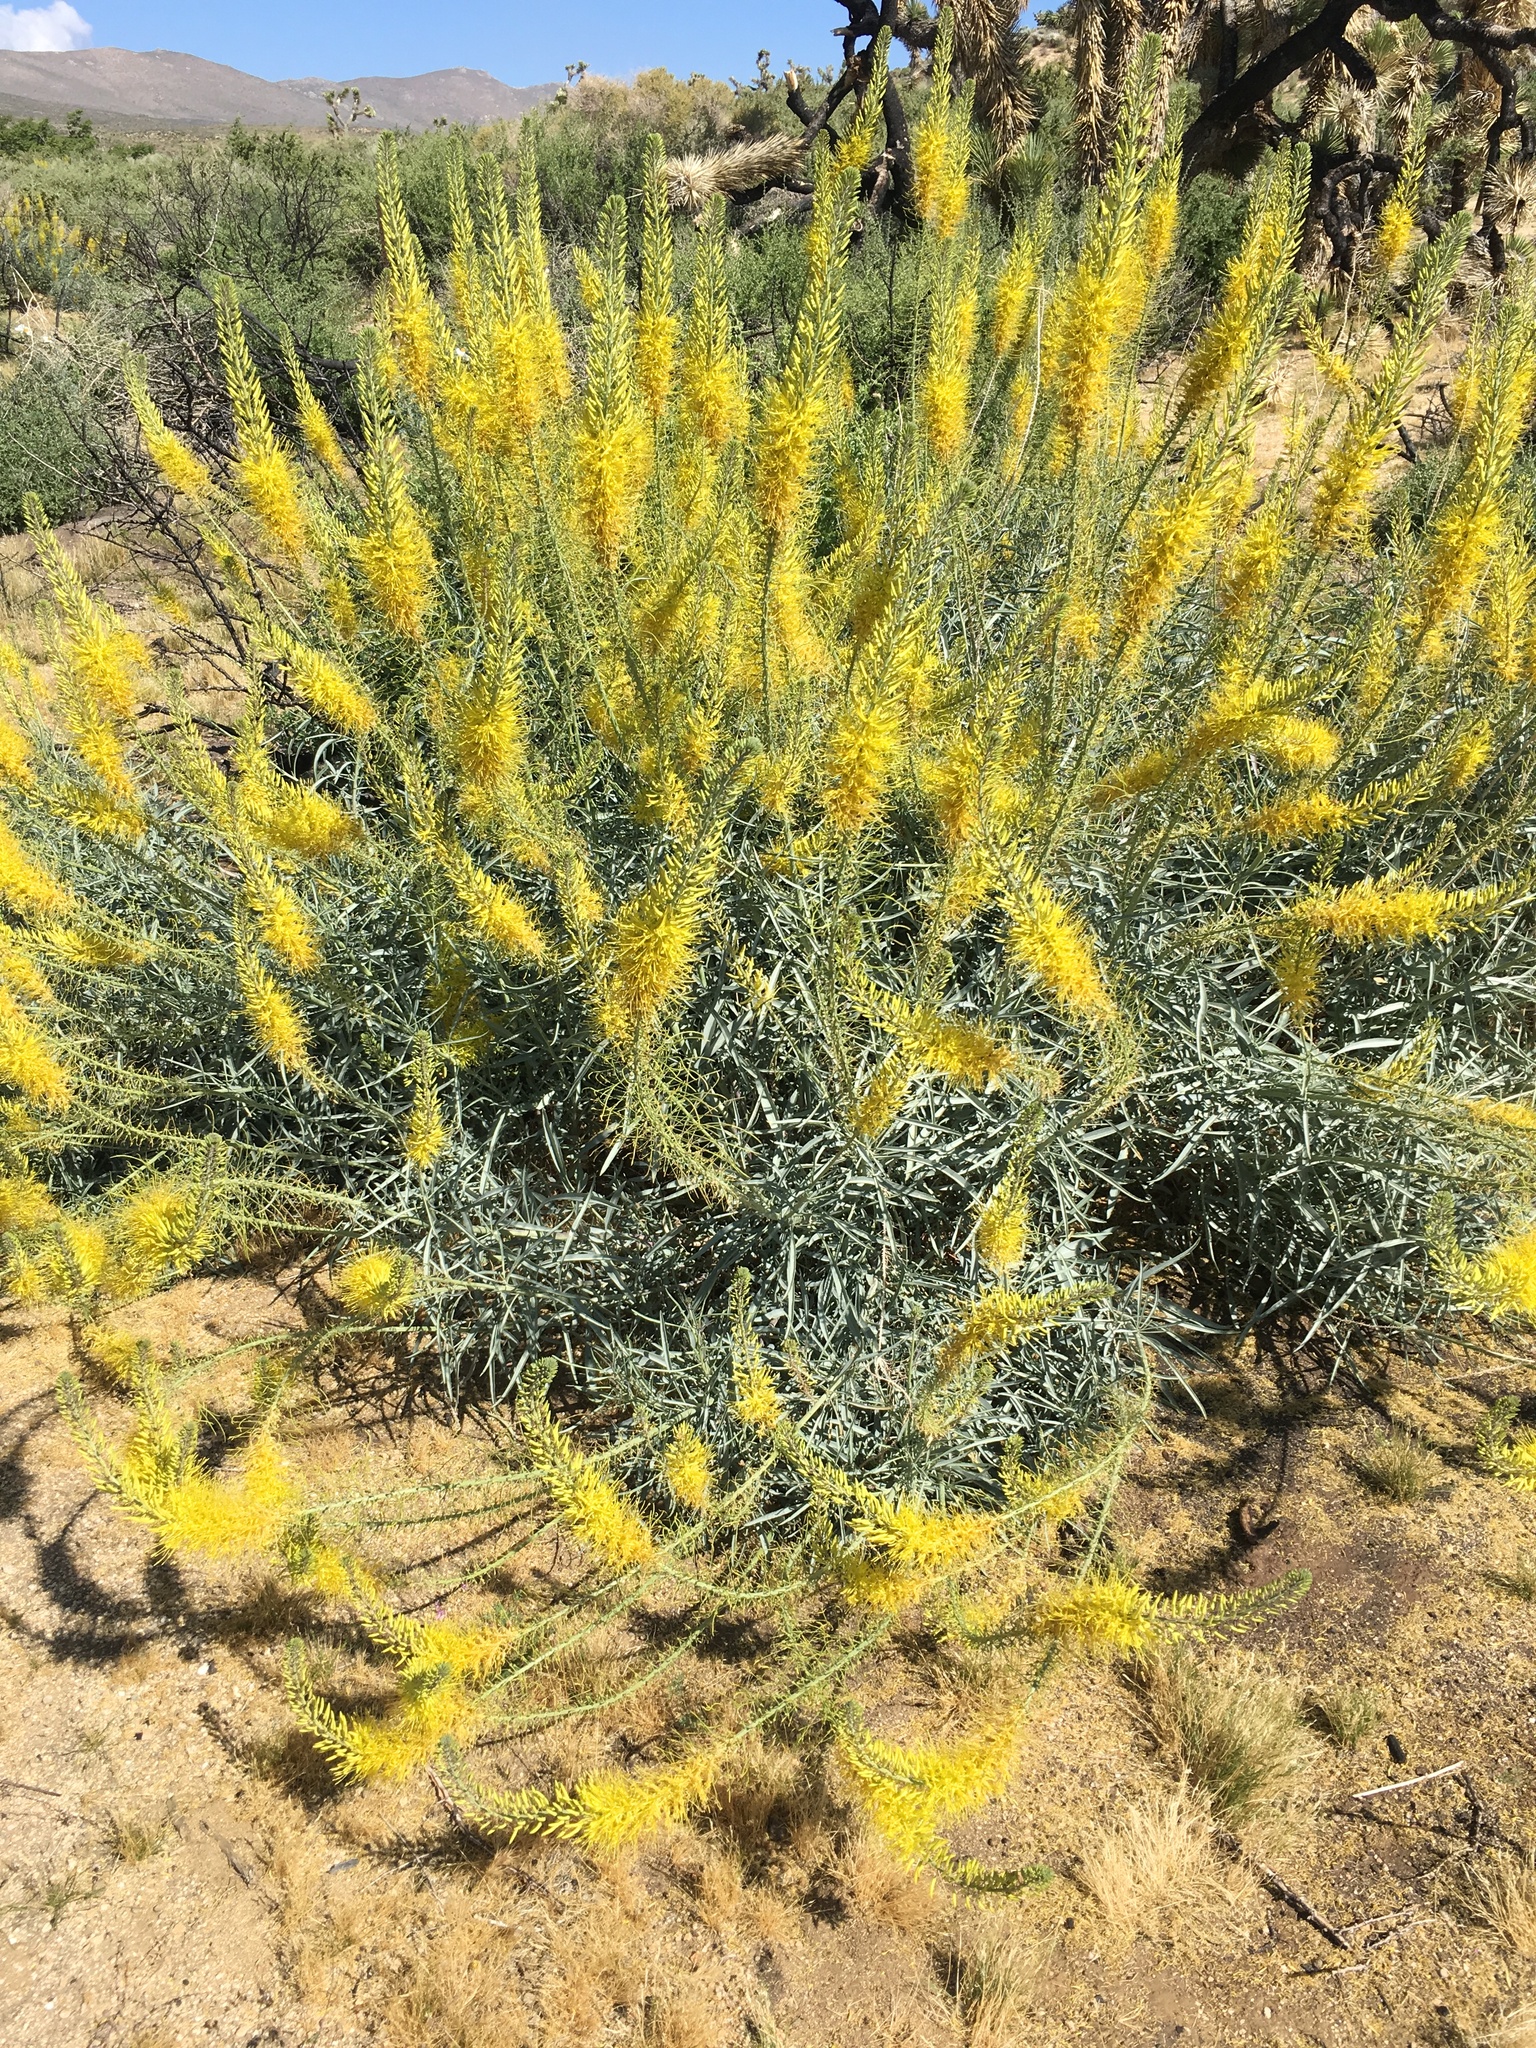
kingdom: Plantae
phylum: Tracheophyta
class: Magnoliopsida
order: Brassicales
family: Brassicaceae
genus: Stanleya
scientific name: Stanleya pinnata
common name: Prince's-plume
